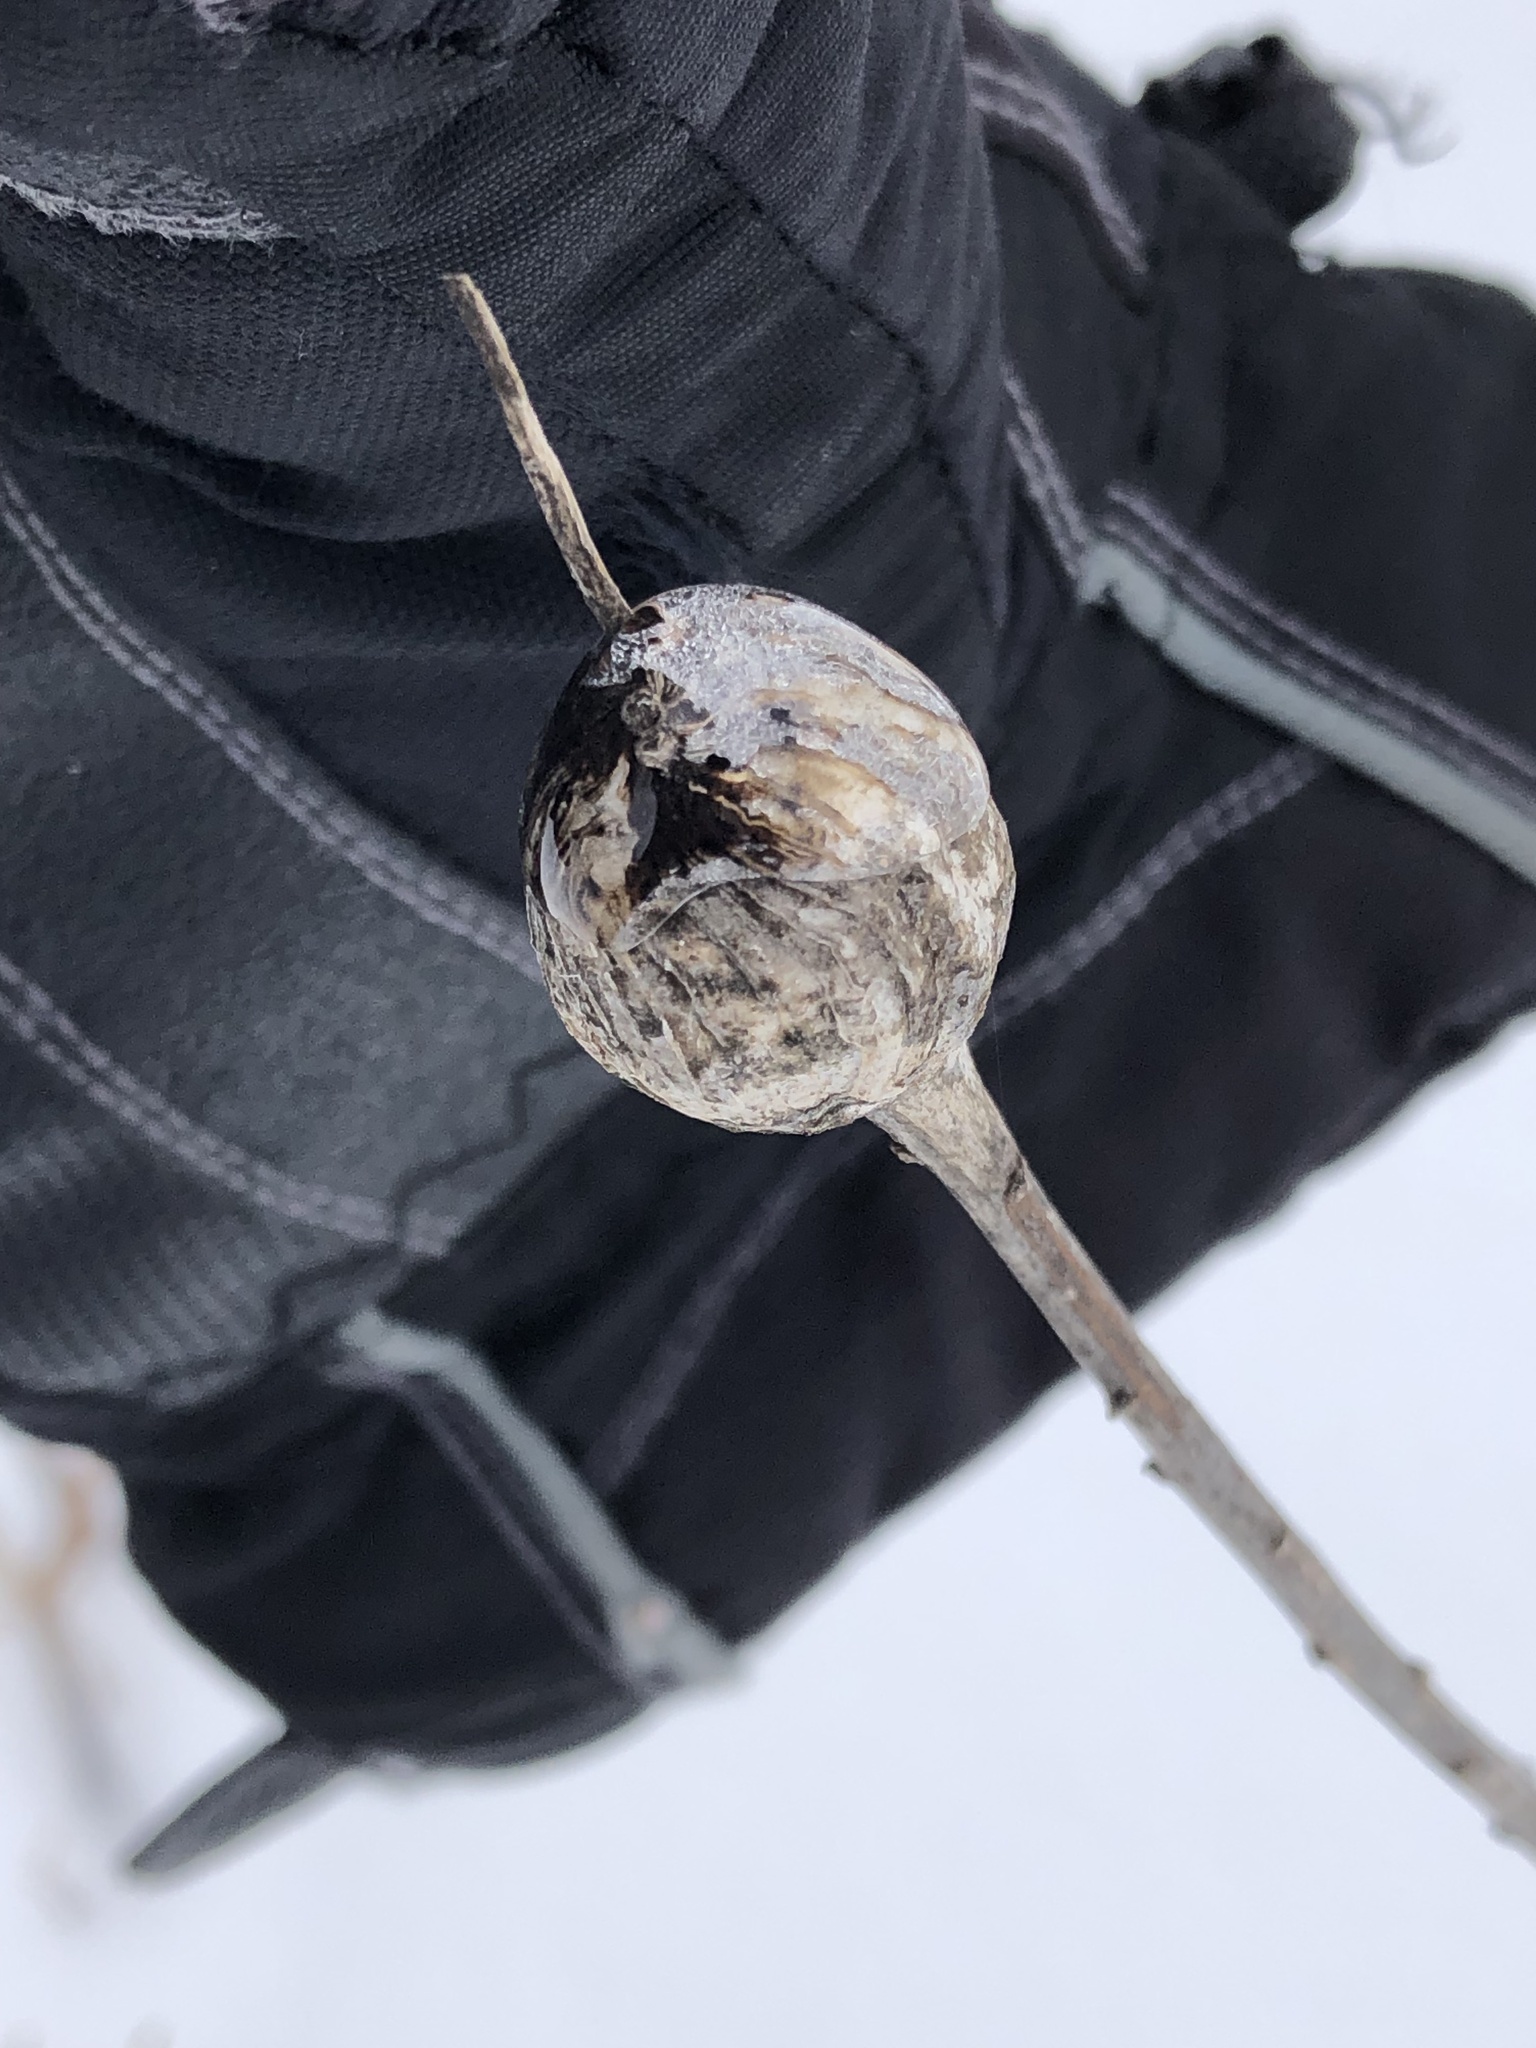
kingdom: Animalia
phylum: Arthropoda
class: Insecta
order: Diptera
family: Tephritidae
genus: Eurosta
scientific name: Eurosta solidaginis
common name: Goldenrod gall fly
